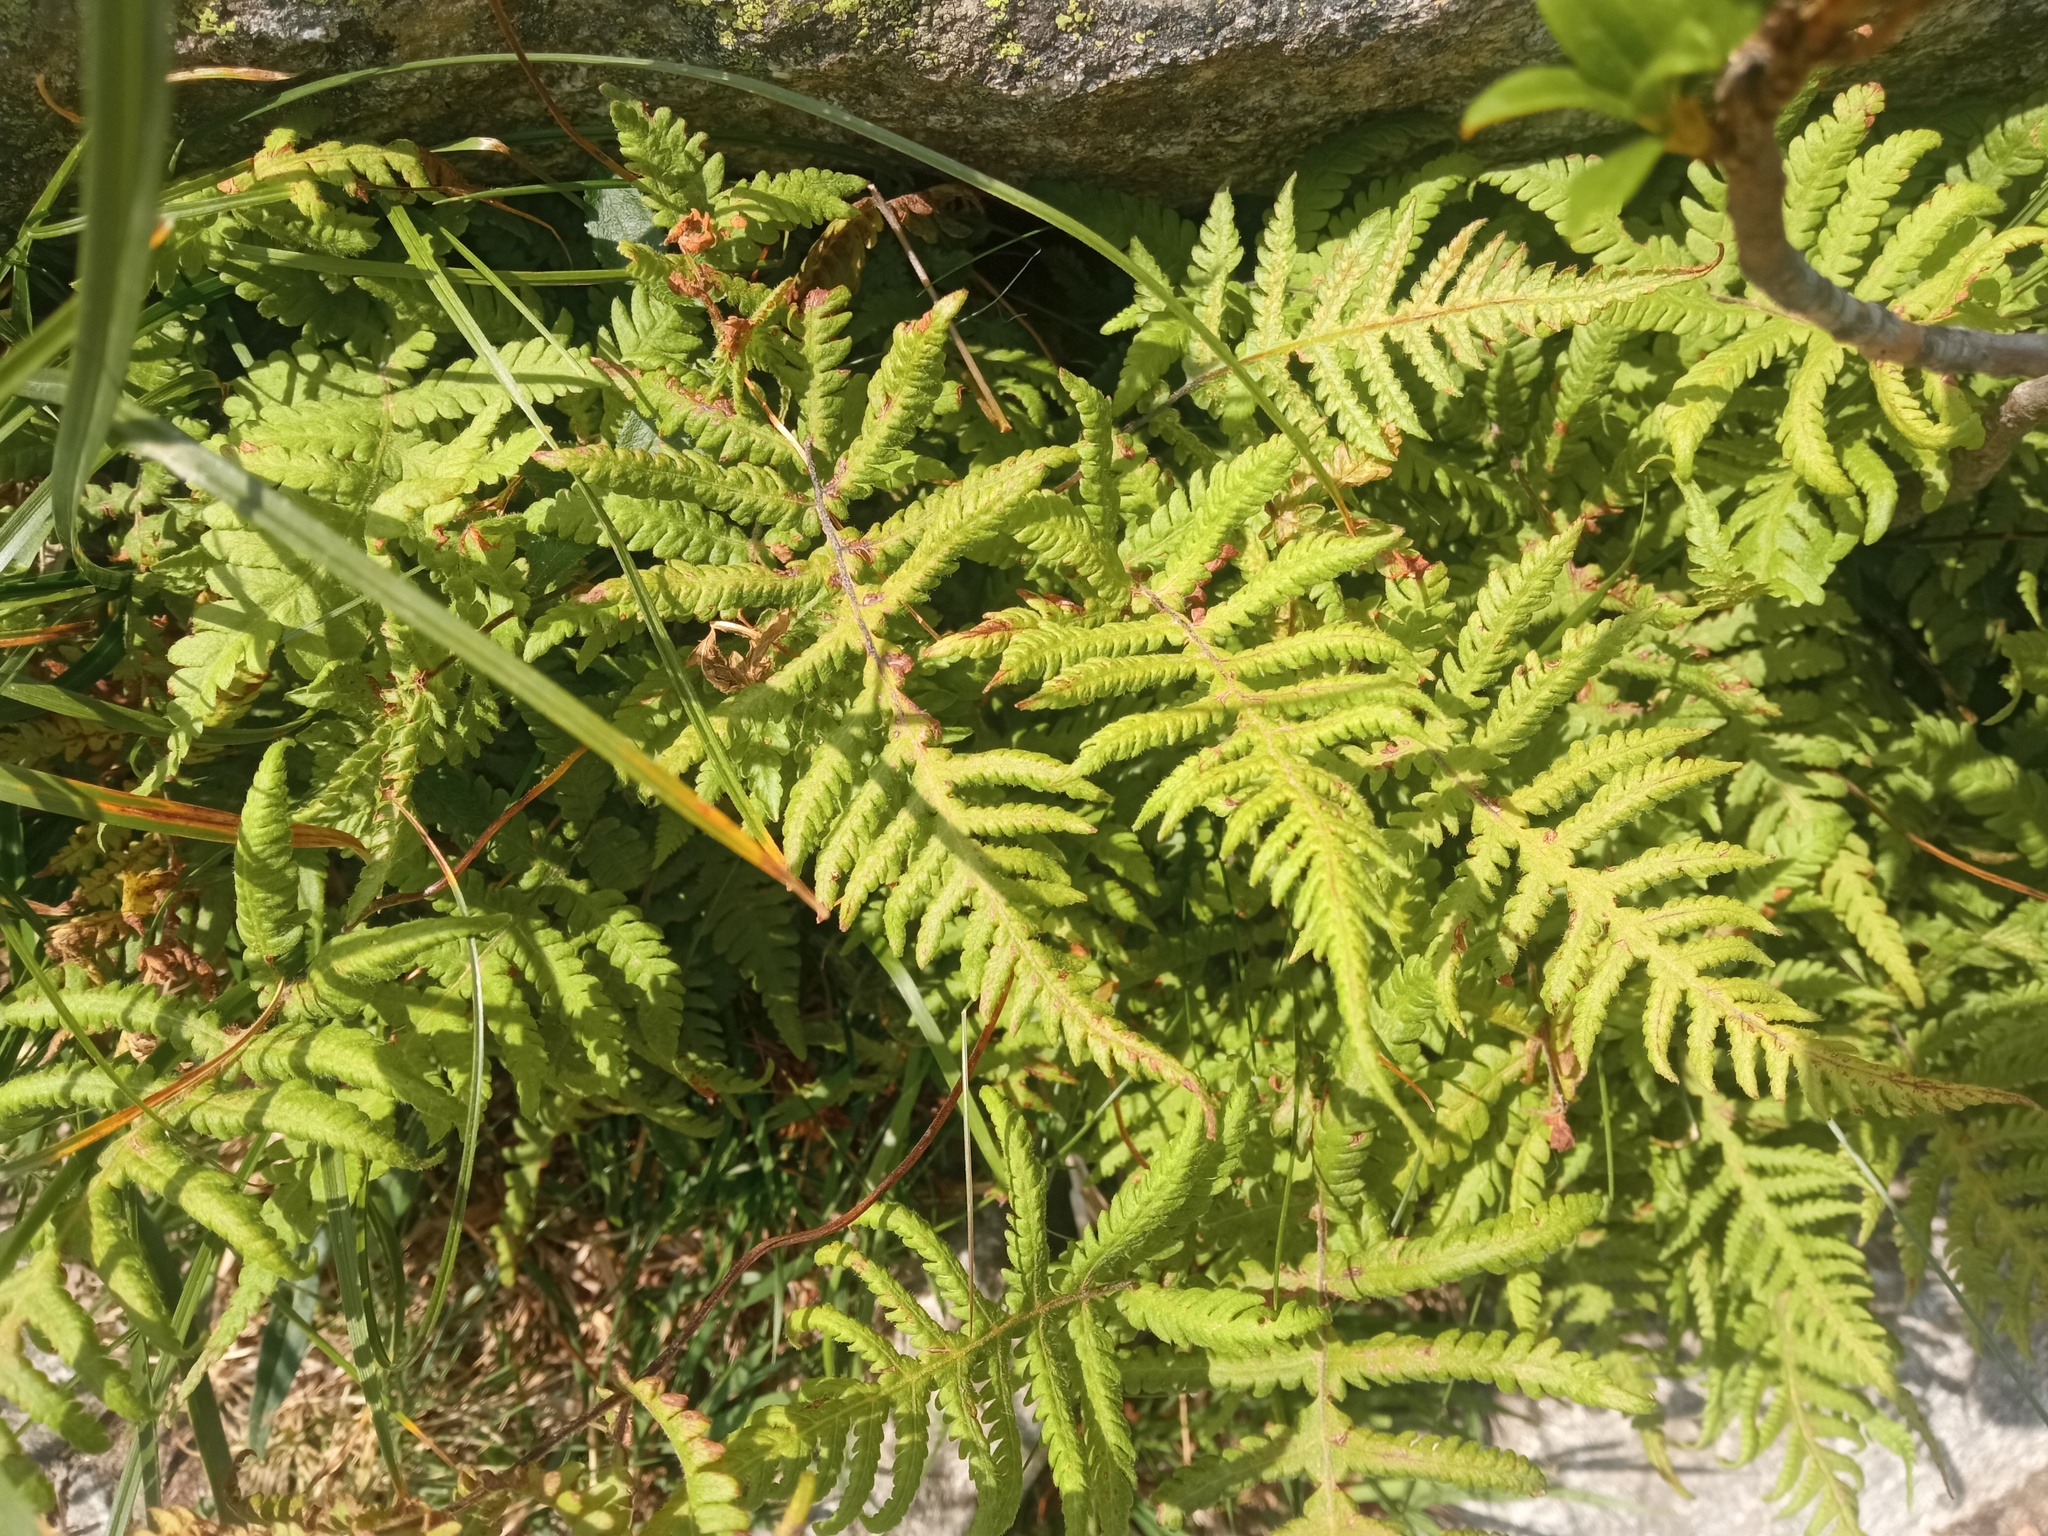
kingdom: Plantae
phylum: Tracheophyta
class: Polypodiopsida
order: Polypodiales
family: Thelypteridaceae
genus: Phegopteris
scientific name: Phegopteris connectilis
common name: Beech fern
